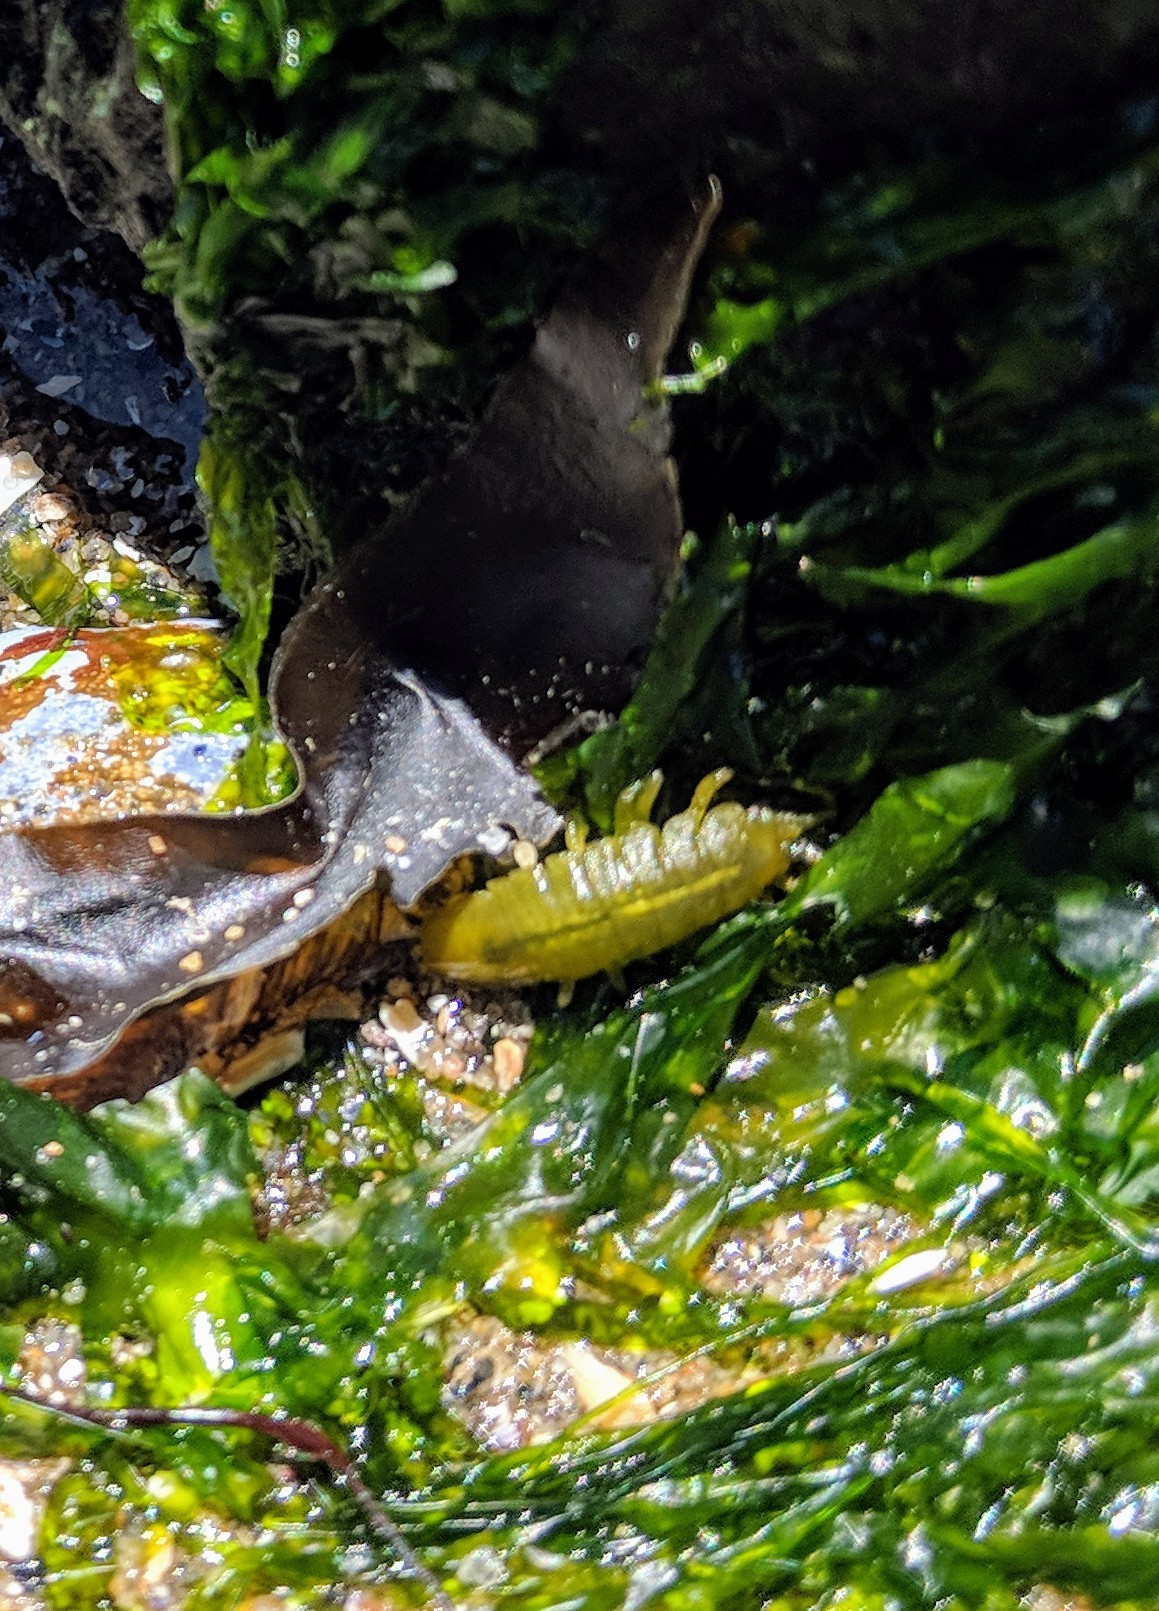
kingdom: Animalia
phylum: Arthropoda
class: Malacostraca
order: Isopoda
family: Idoteidae
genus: Pentidotea
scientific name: Pentidotea wosnesenskii
